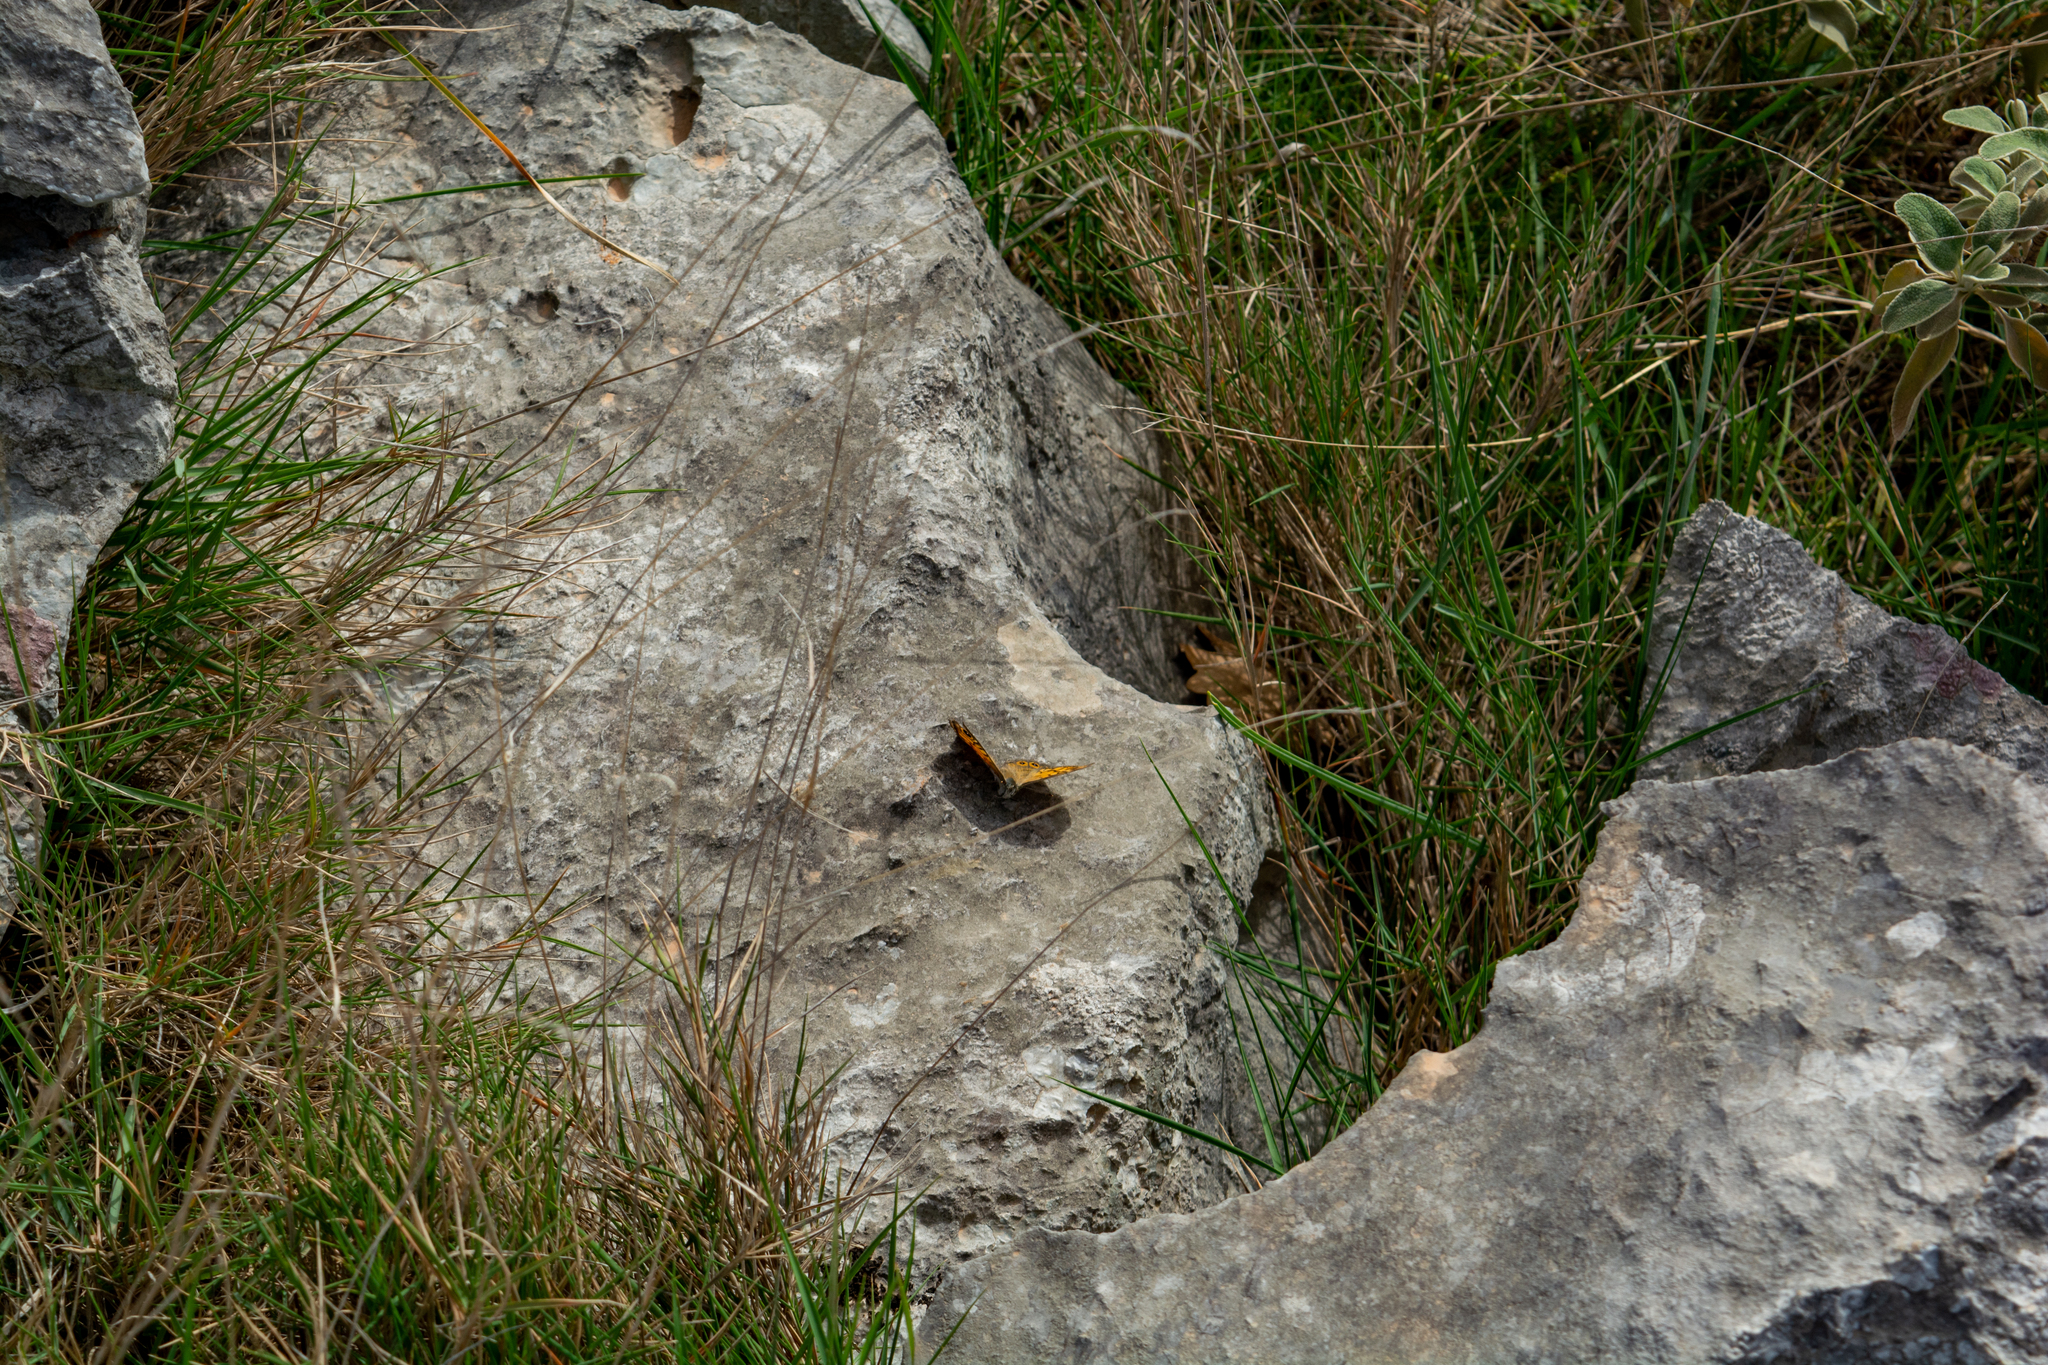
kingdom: Animalia
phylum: Arthropoda
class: Insecta
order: Lepidoptera
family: Nymphalidae
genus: Pararge
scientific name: Pararge Lasiommata megera
